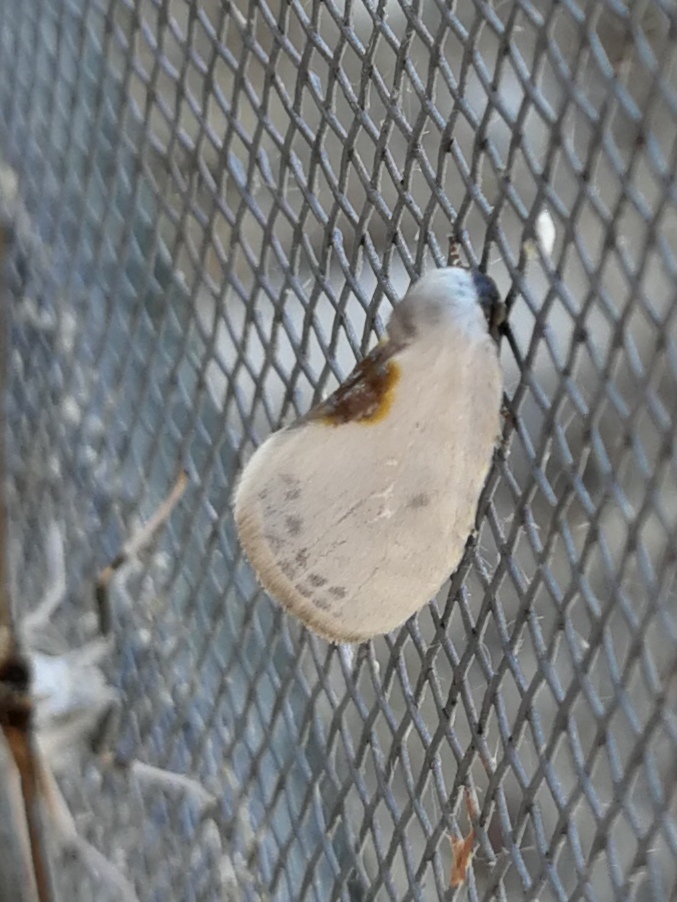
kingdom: Animalia
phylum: Arthropoda
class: Insecta
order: Lepidoptera
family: Drepanidae
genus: Cilix
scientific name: Cilix hispanica
